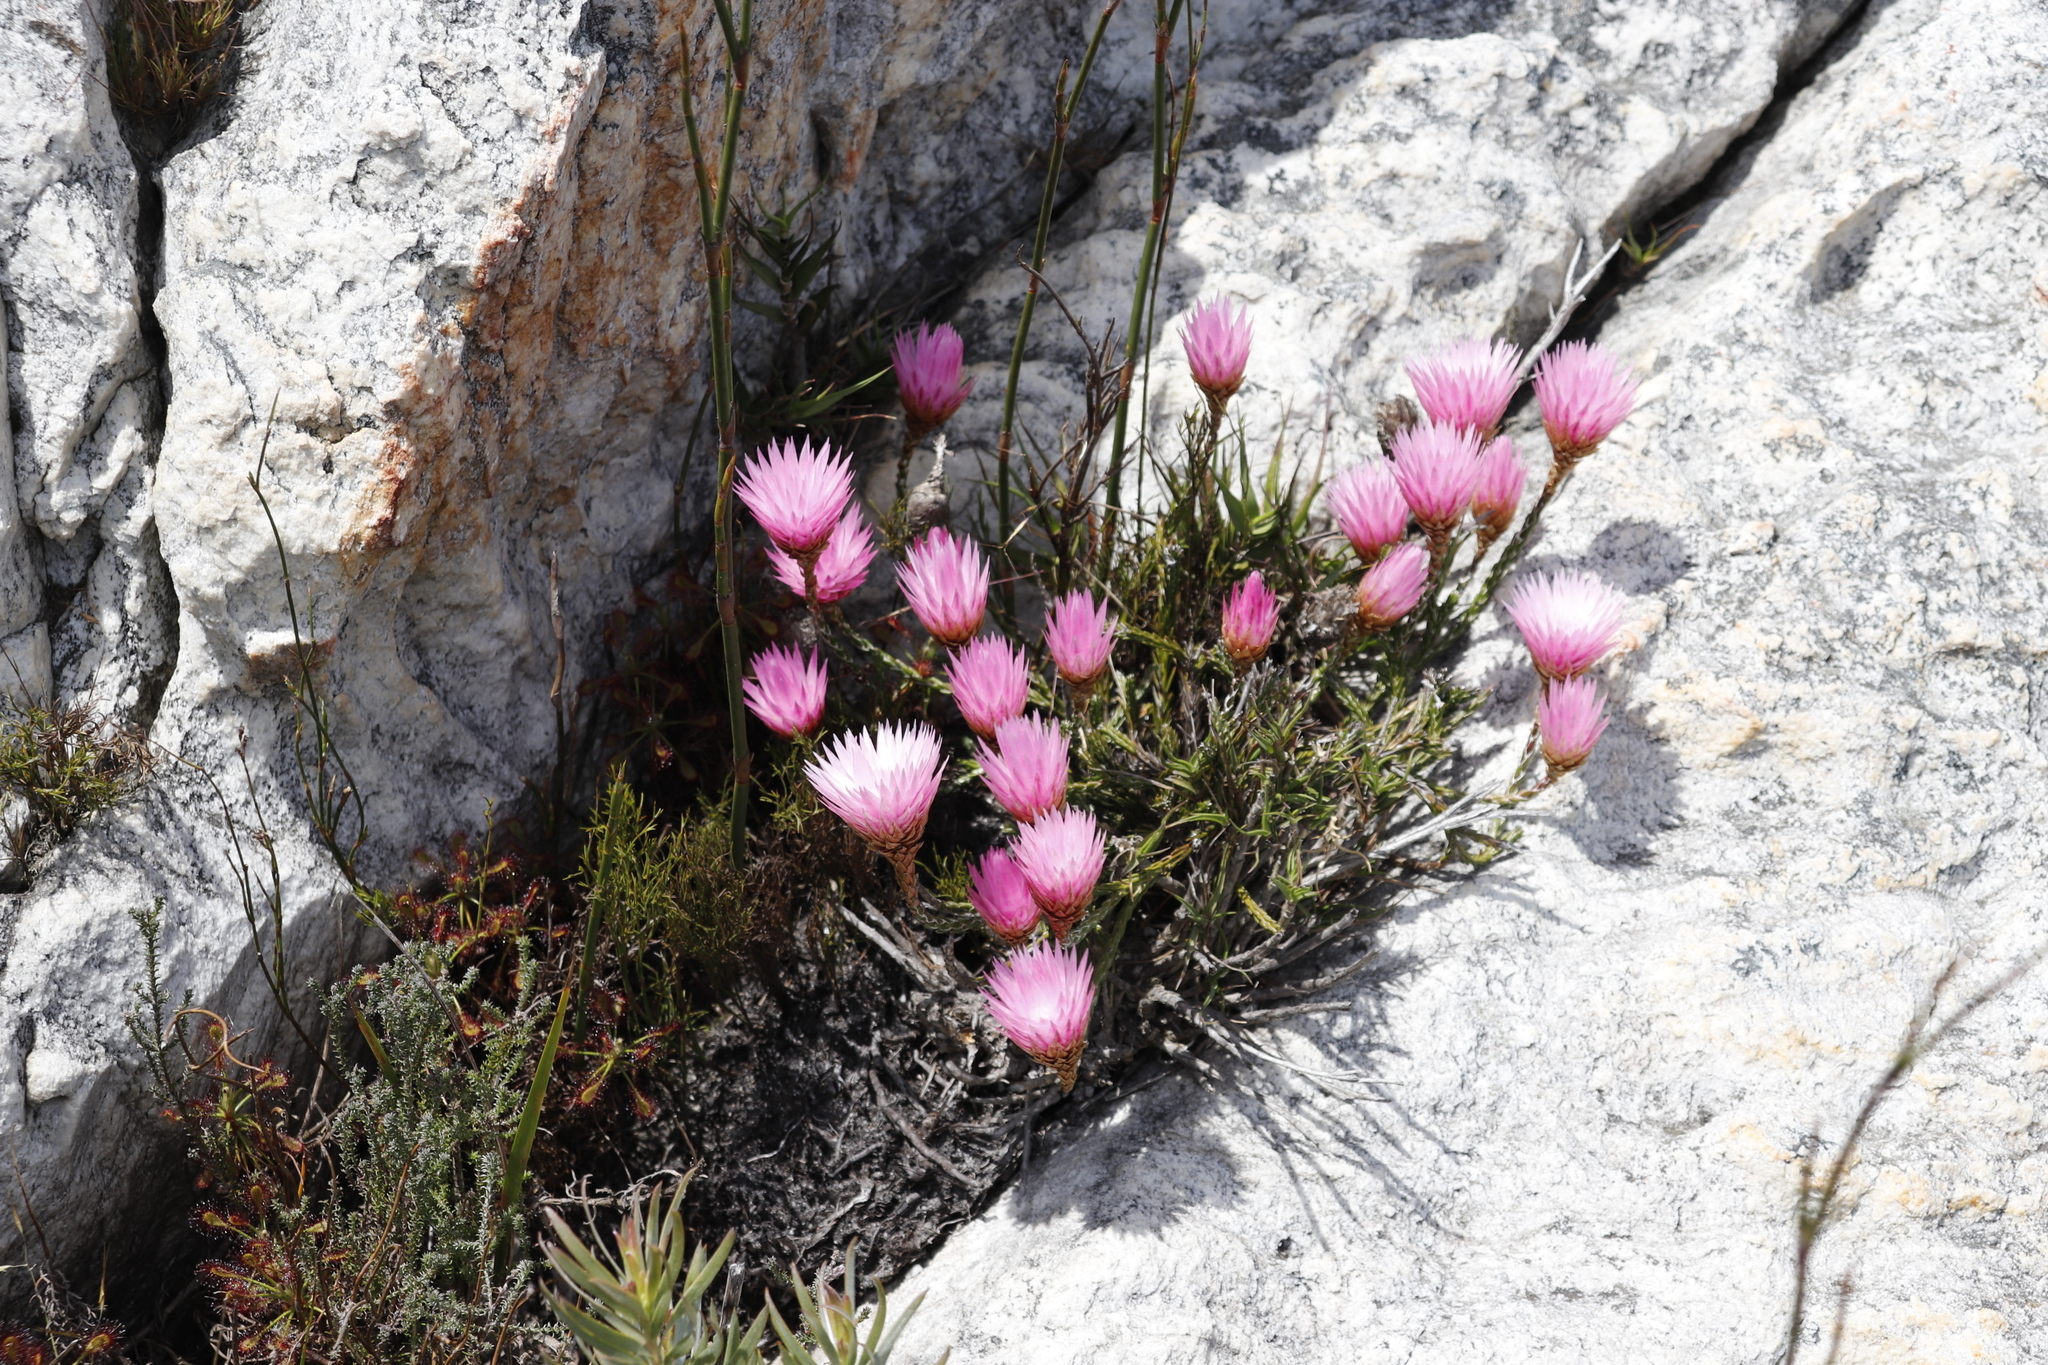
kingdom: Plantae
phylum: Tracheophyta
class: Magnoliopsida
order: Asterales
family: Asteraceae
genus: Edmondia
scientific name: Edmondia pinifolia
